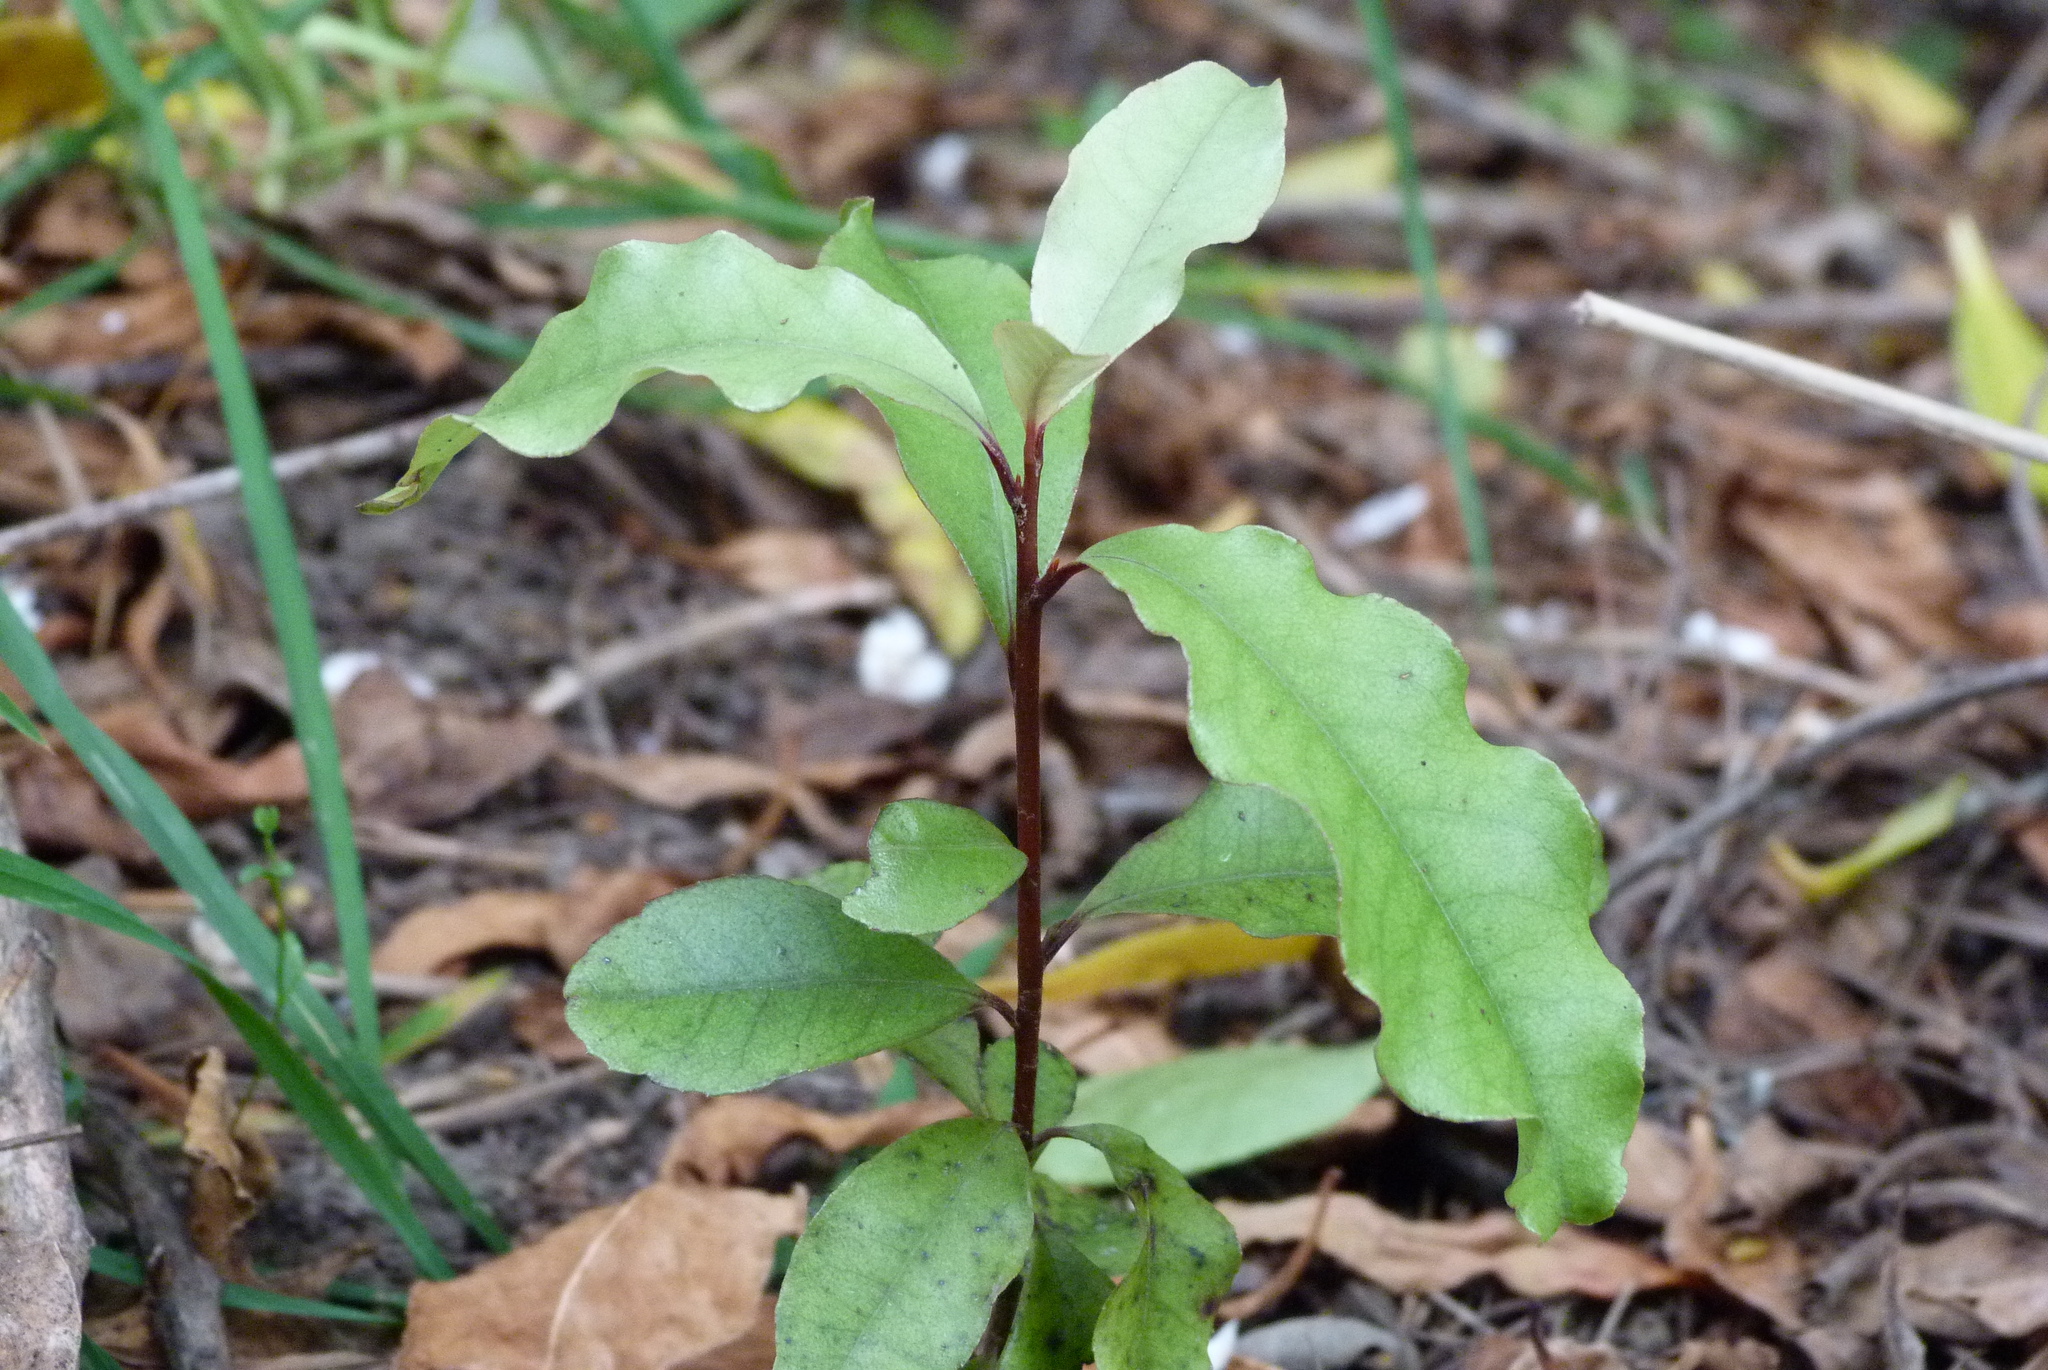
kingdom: Plantae
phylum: Tracheophyta
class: Magnoliopsida
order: Ericales
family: Primulaceae
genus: Myrsine
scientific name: Myrsine australis
